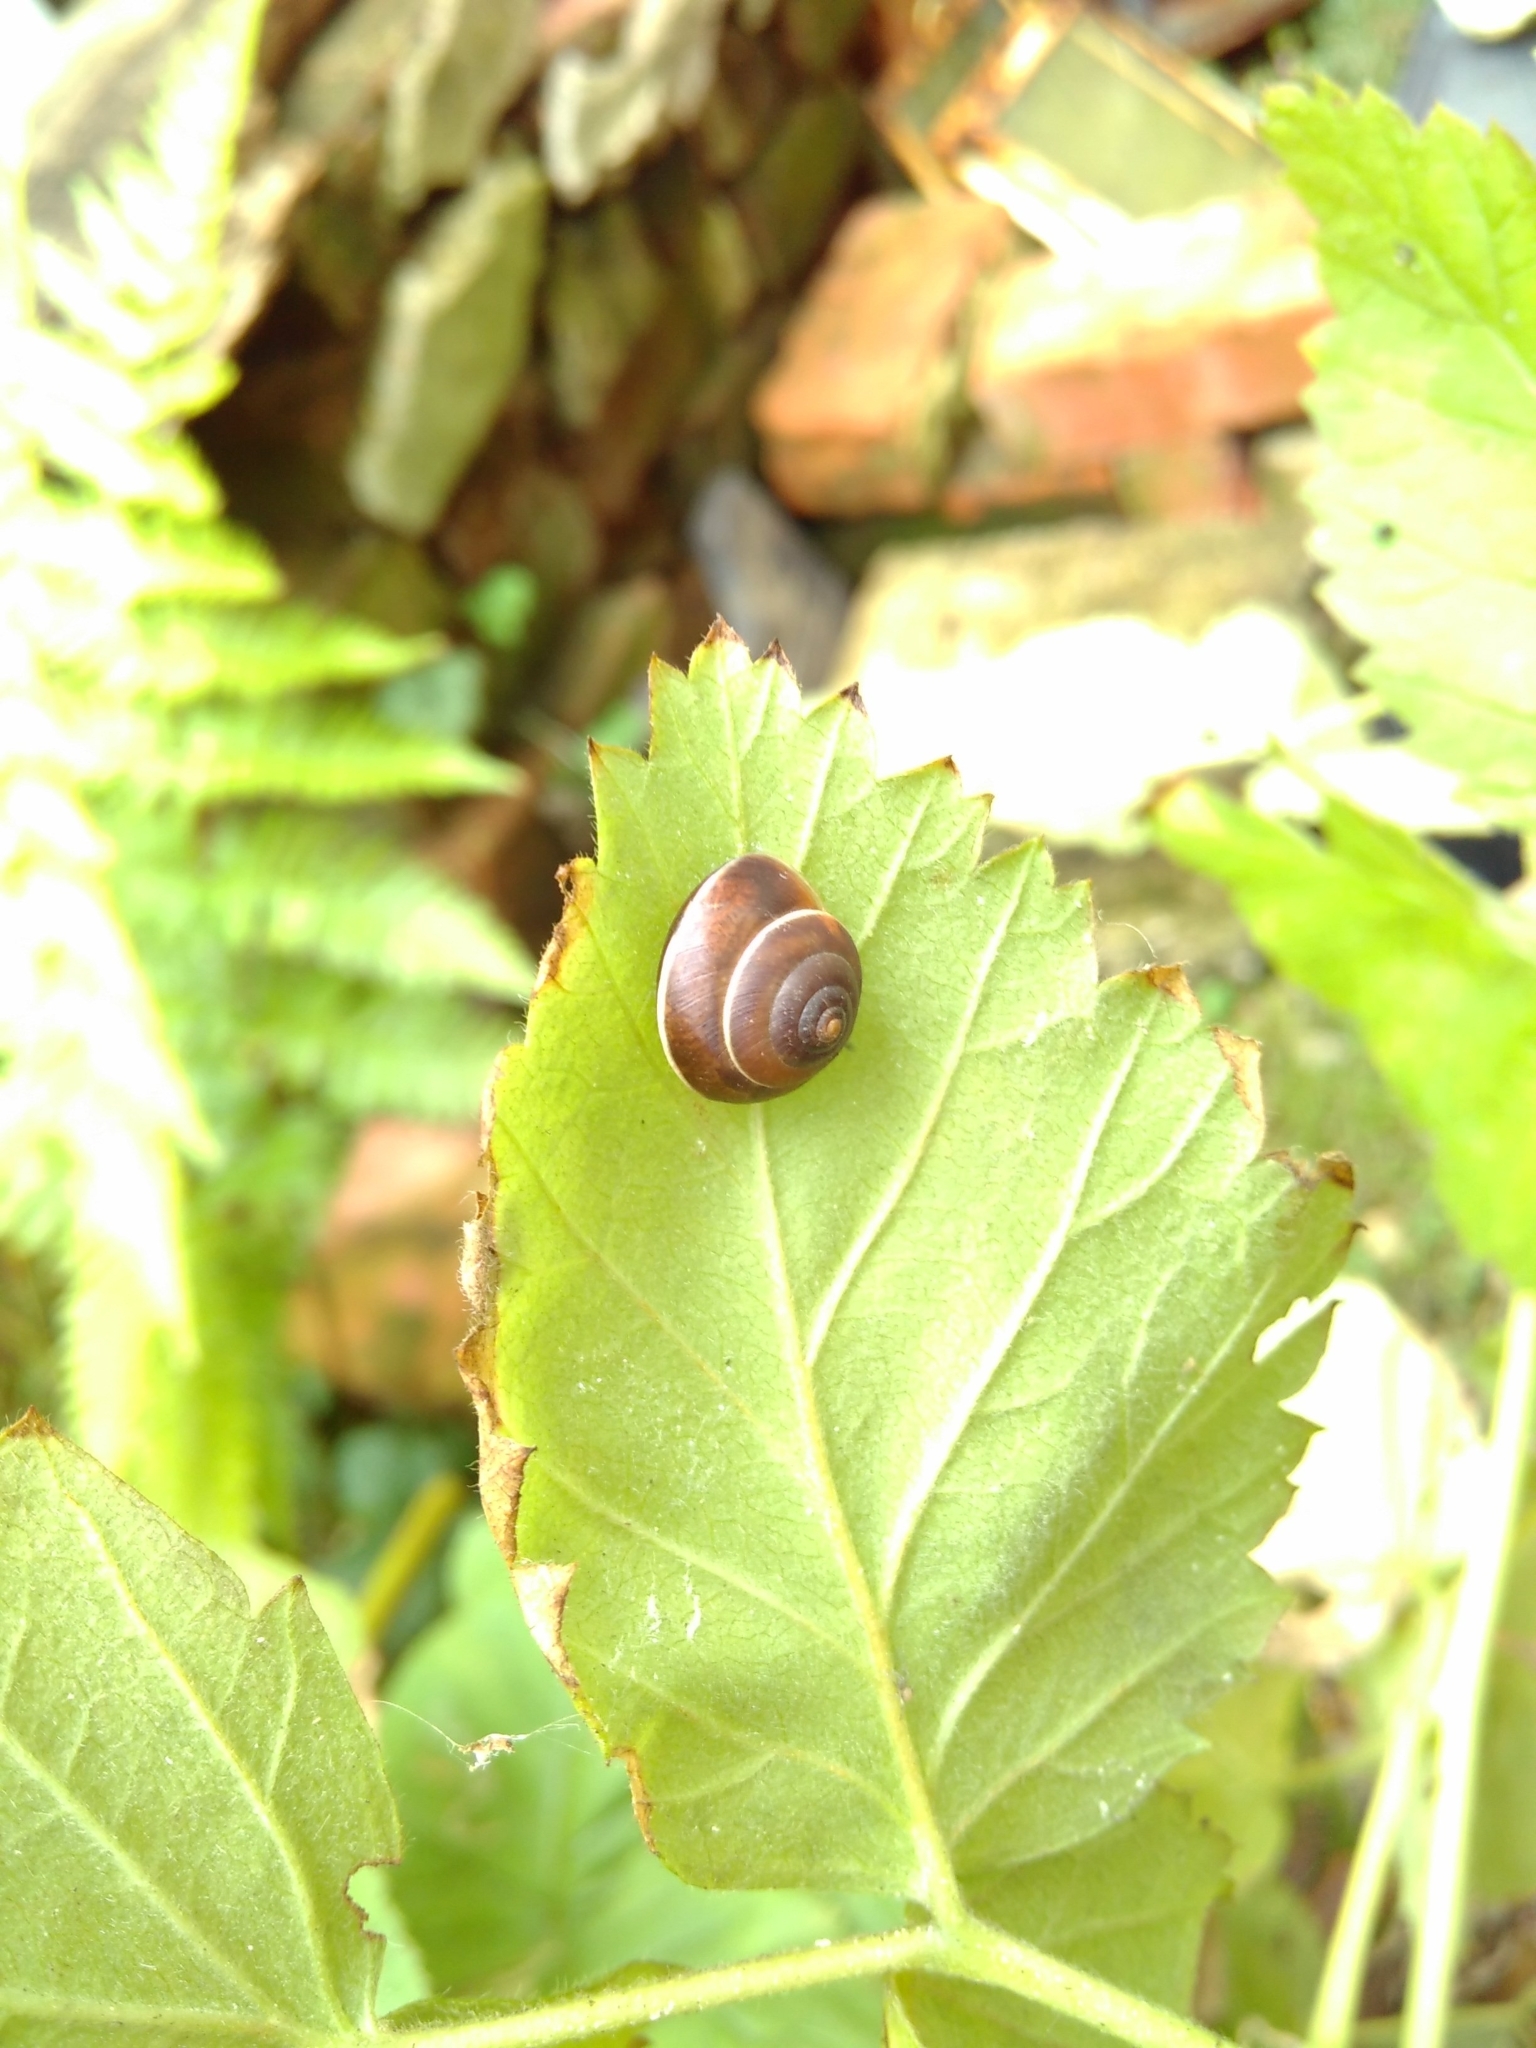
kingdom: Animalia
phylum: Mollusca
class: Gastropoda
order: Stylommatophora
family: Hygromiidae
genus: Hygromia
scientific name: Hygromia cinctella
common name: Girdled snail
